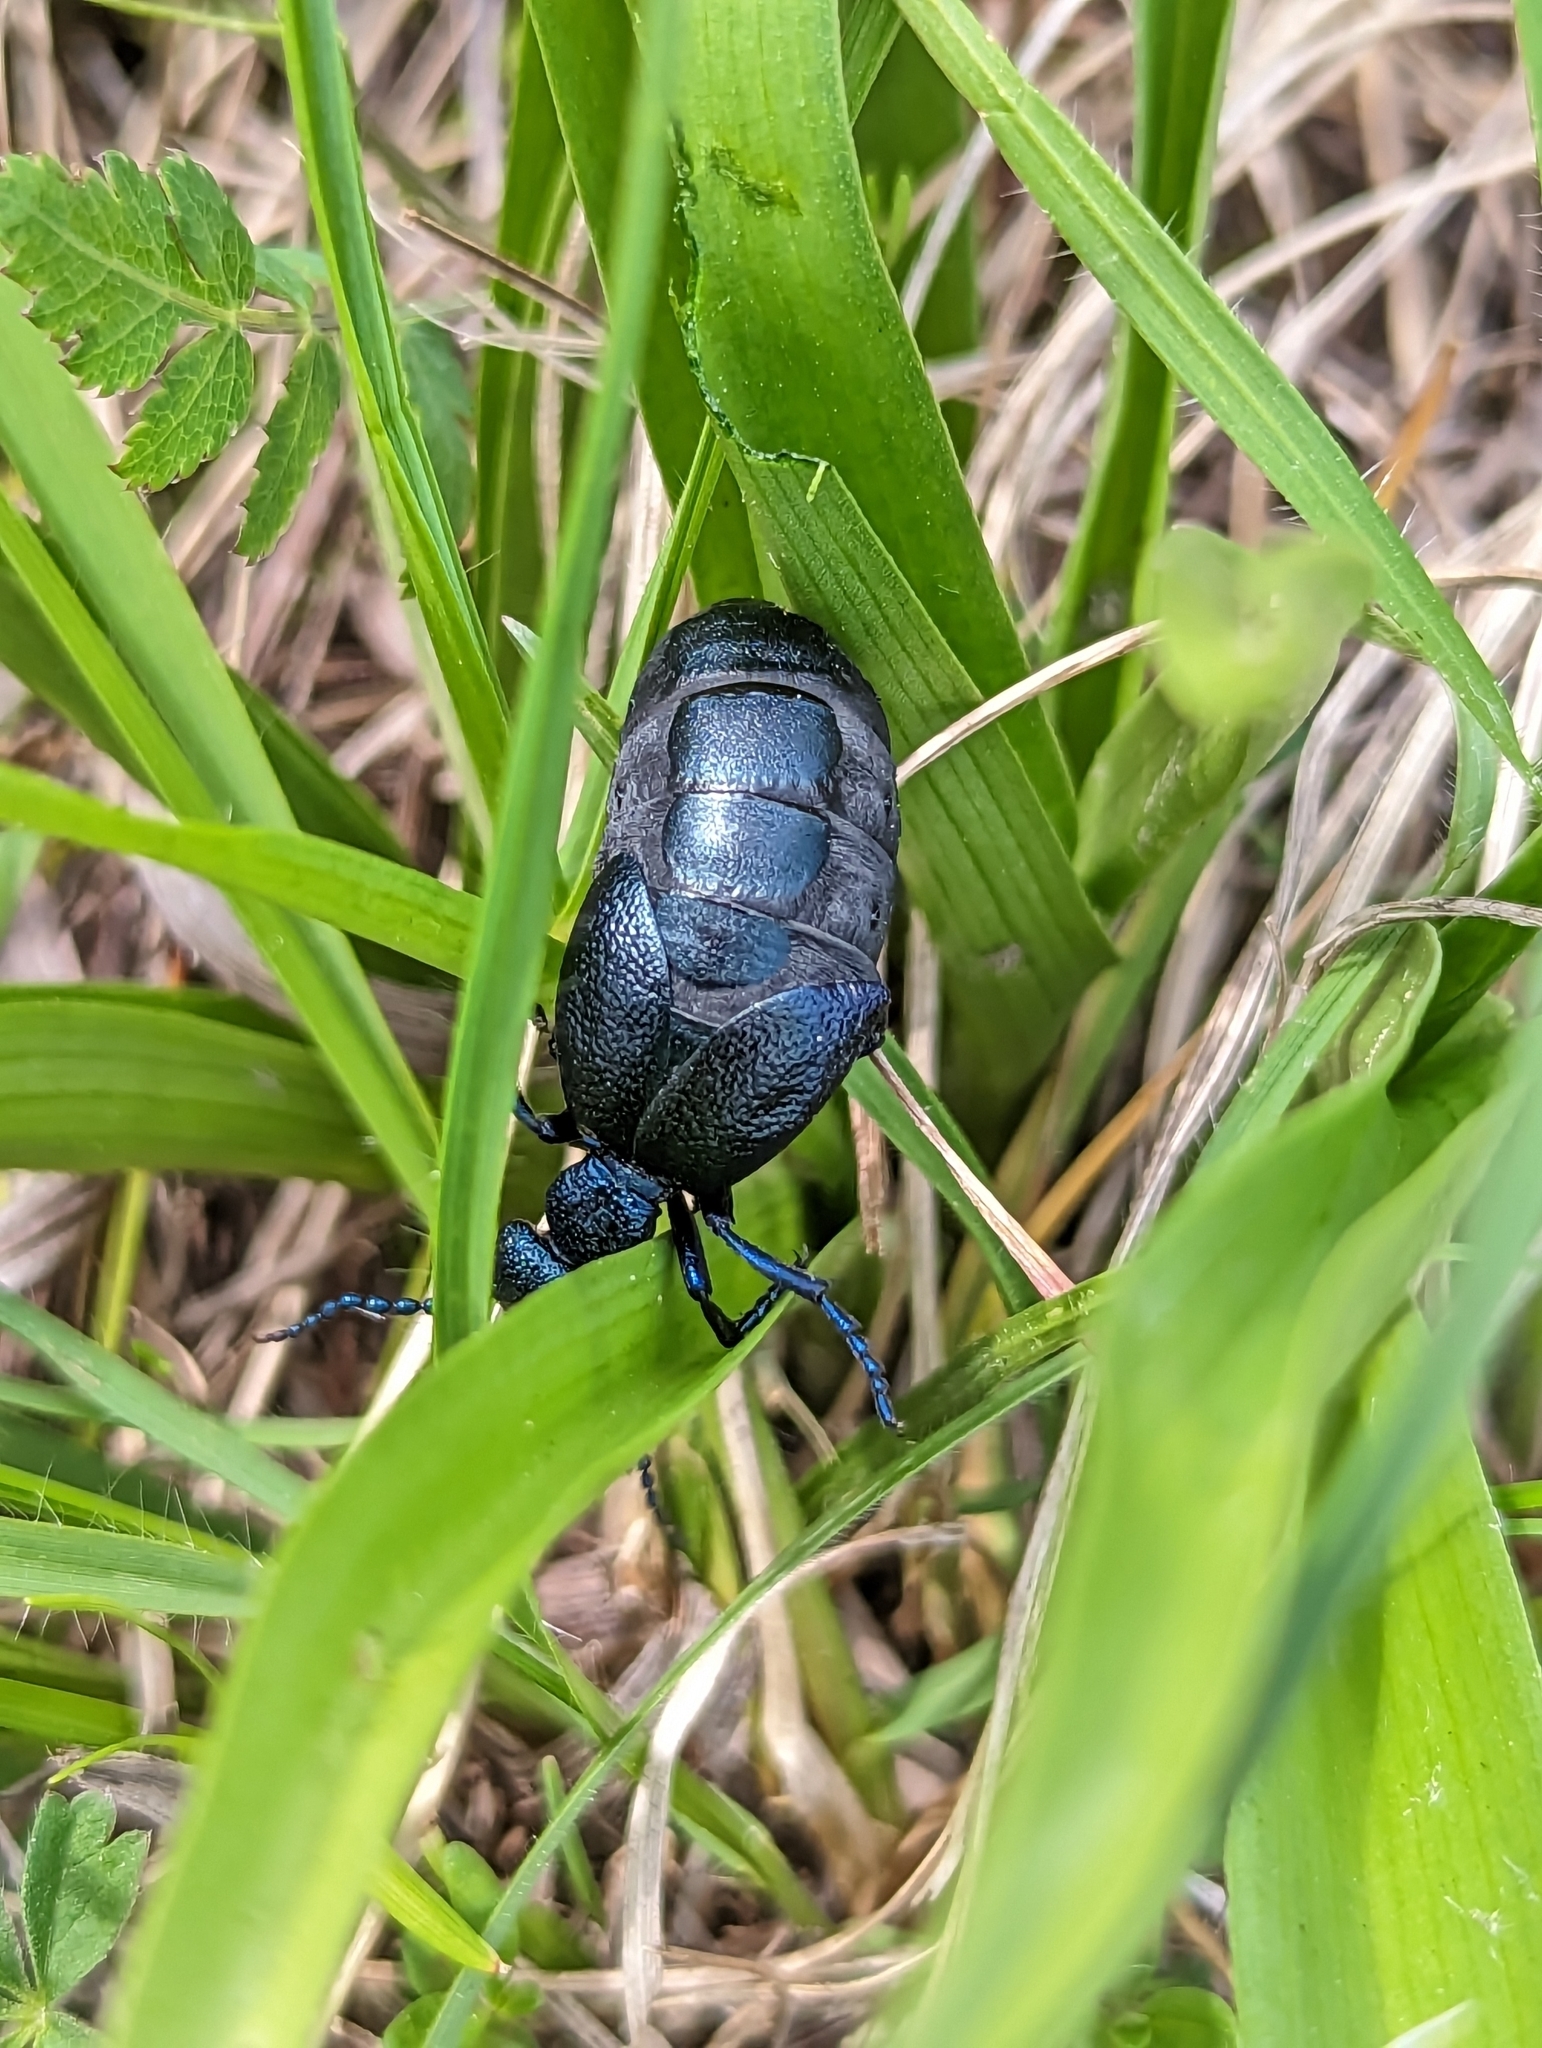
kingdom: Animalia
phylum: Arthropoda
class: Insecta
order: Coleoptera
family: Meloidae
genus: Meloe
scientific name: Meloe proscarabaeus
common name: Black oil-beetle
